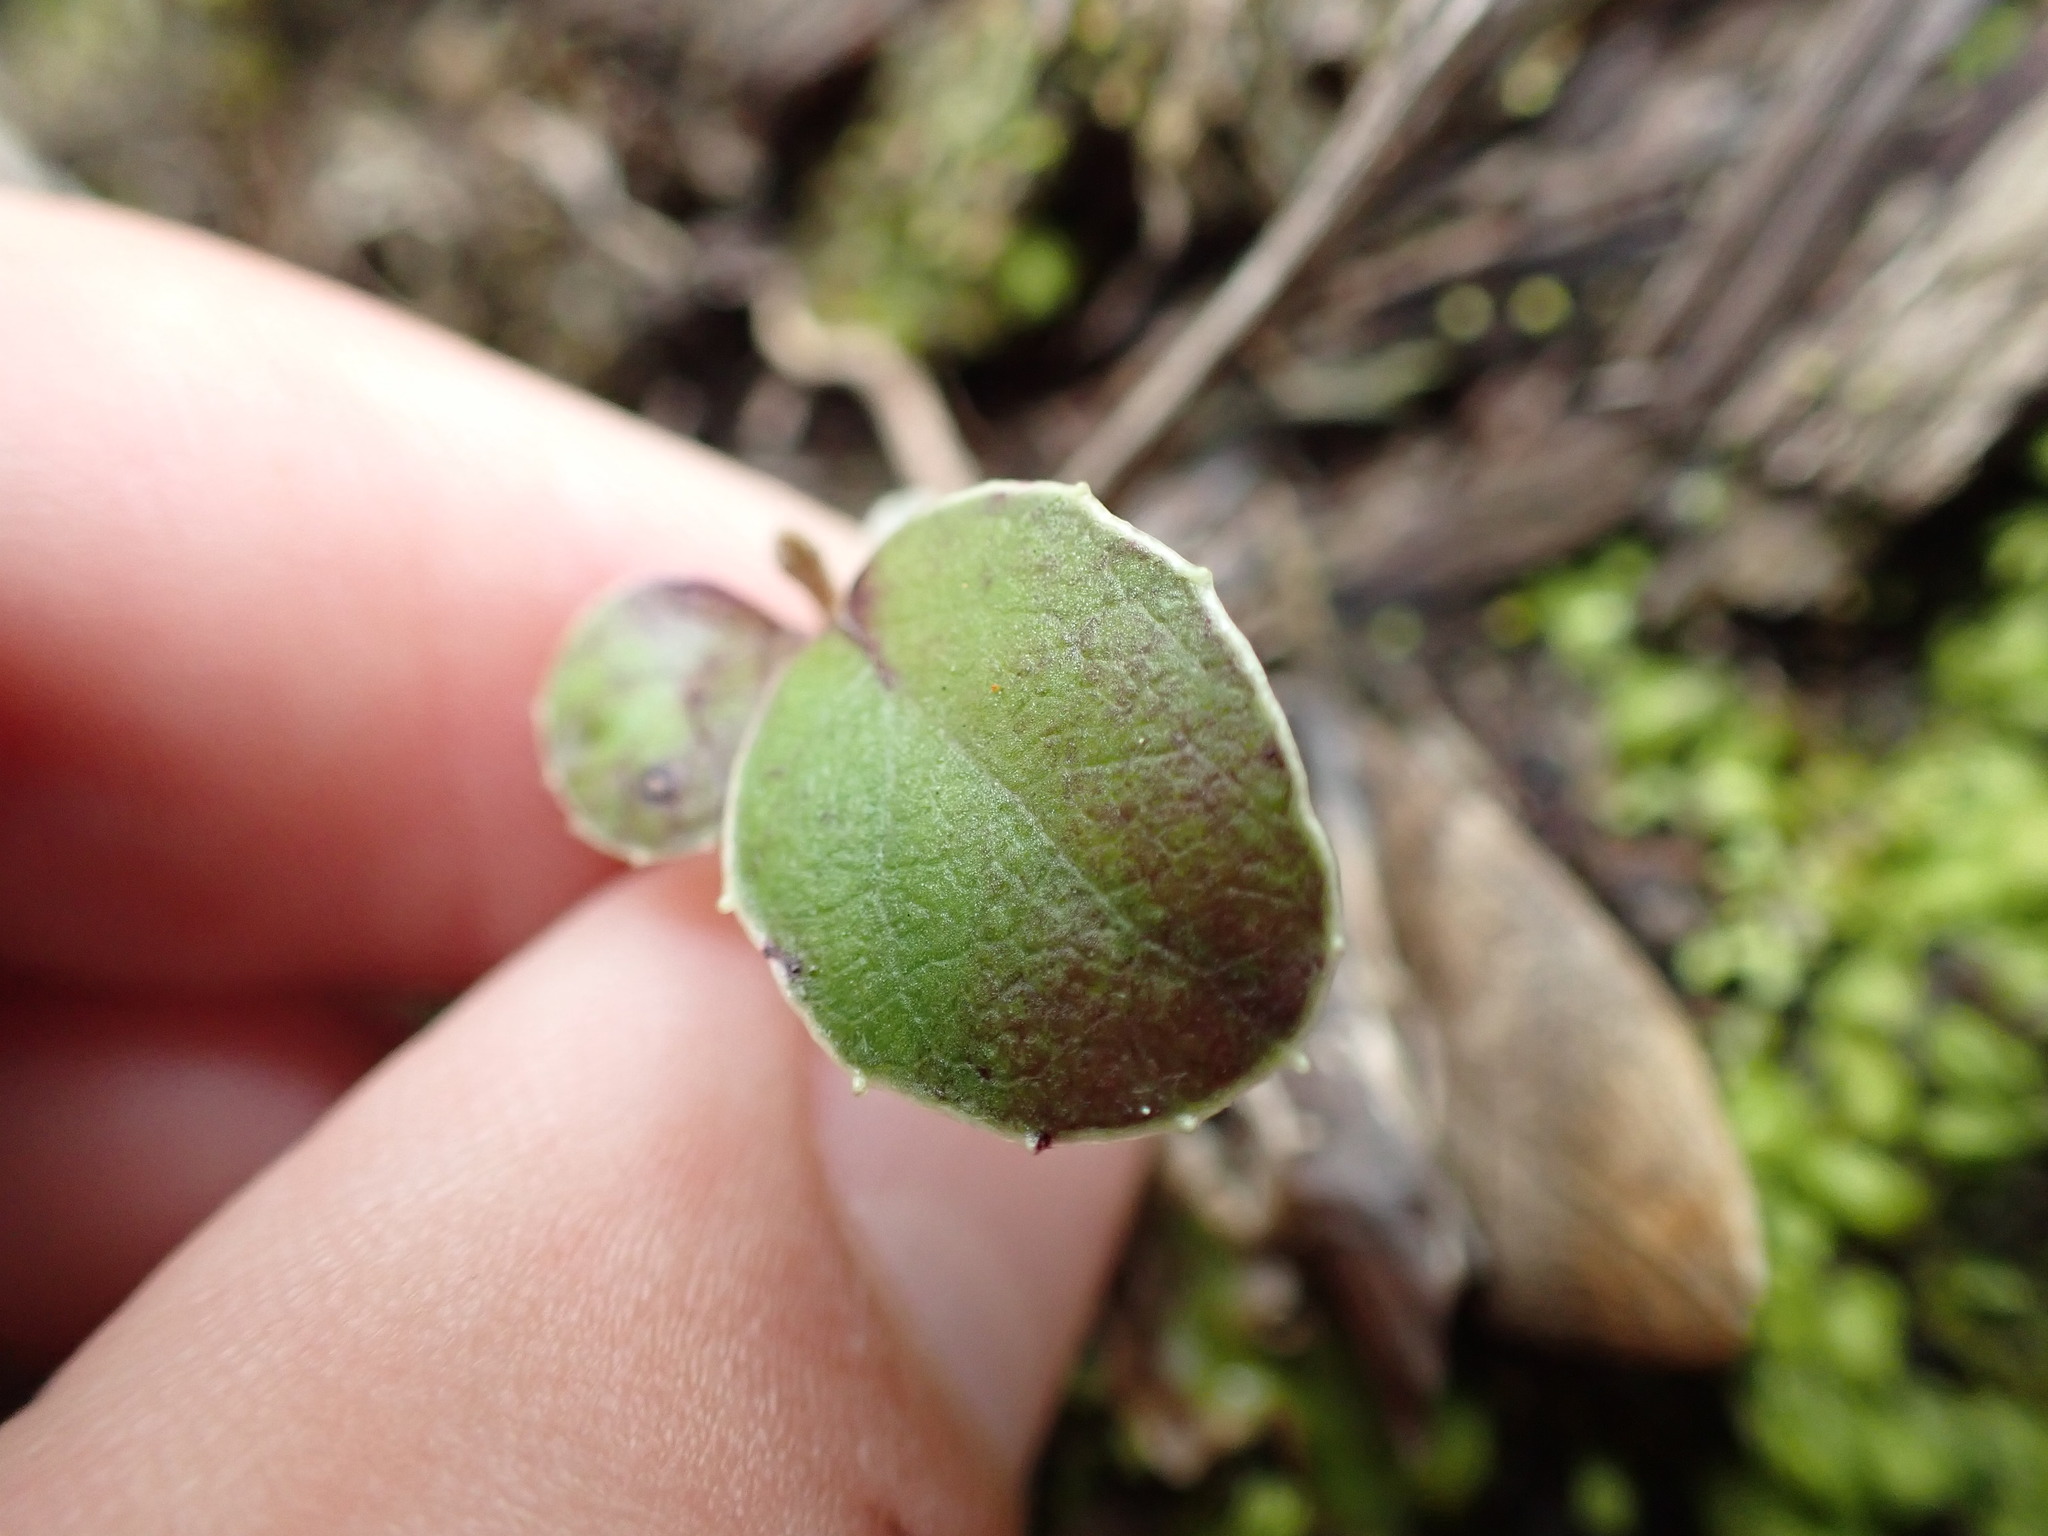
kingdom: Plantae
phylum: Tracheophyta
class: Magnoliopsida
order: Asterales
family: Asteraceae
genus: Olearia
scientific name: Olearia furfuracea
